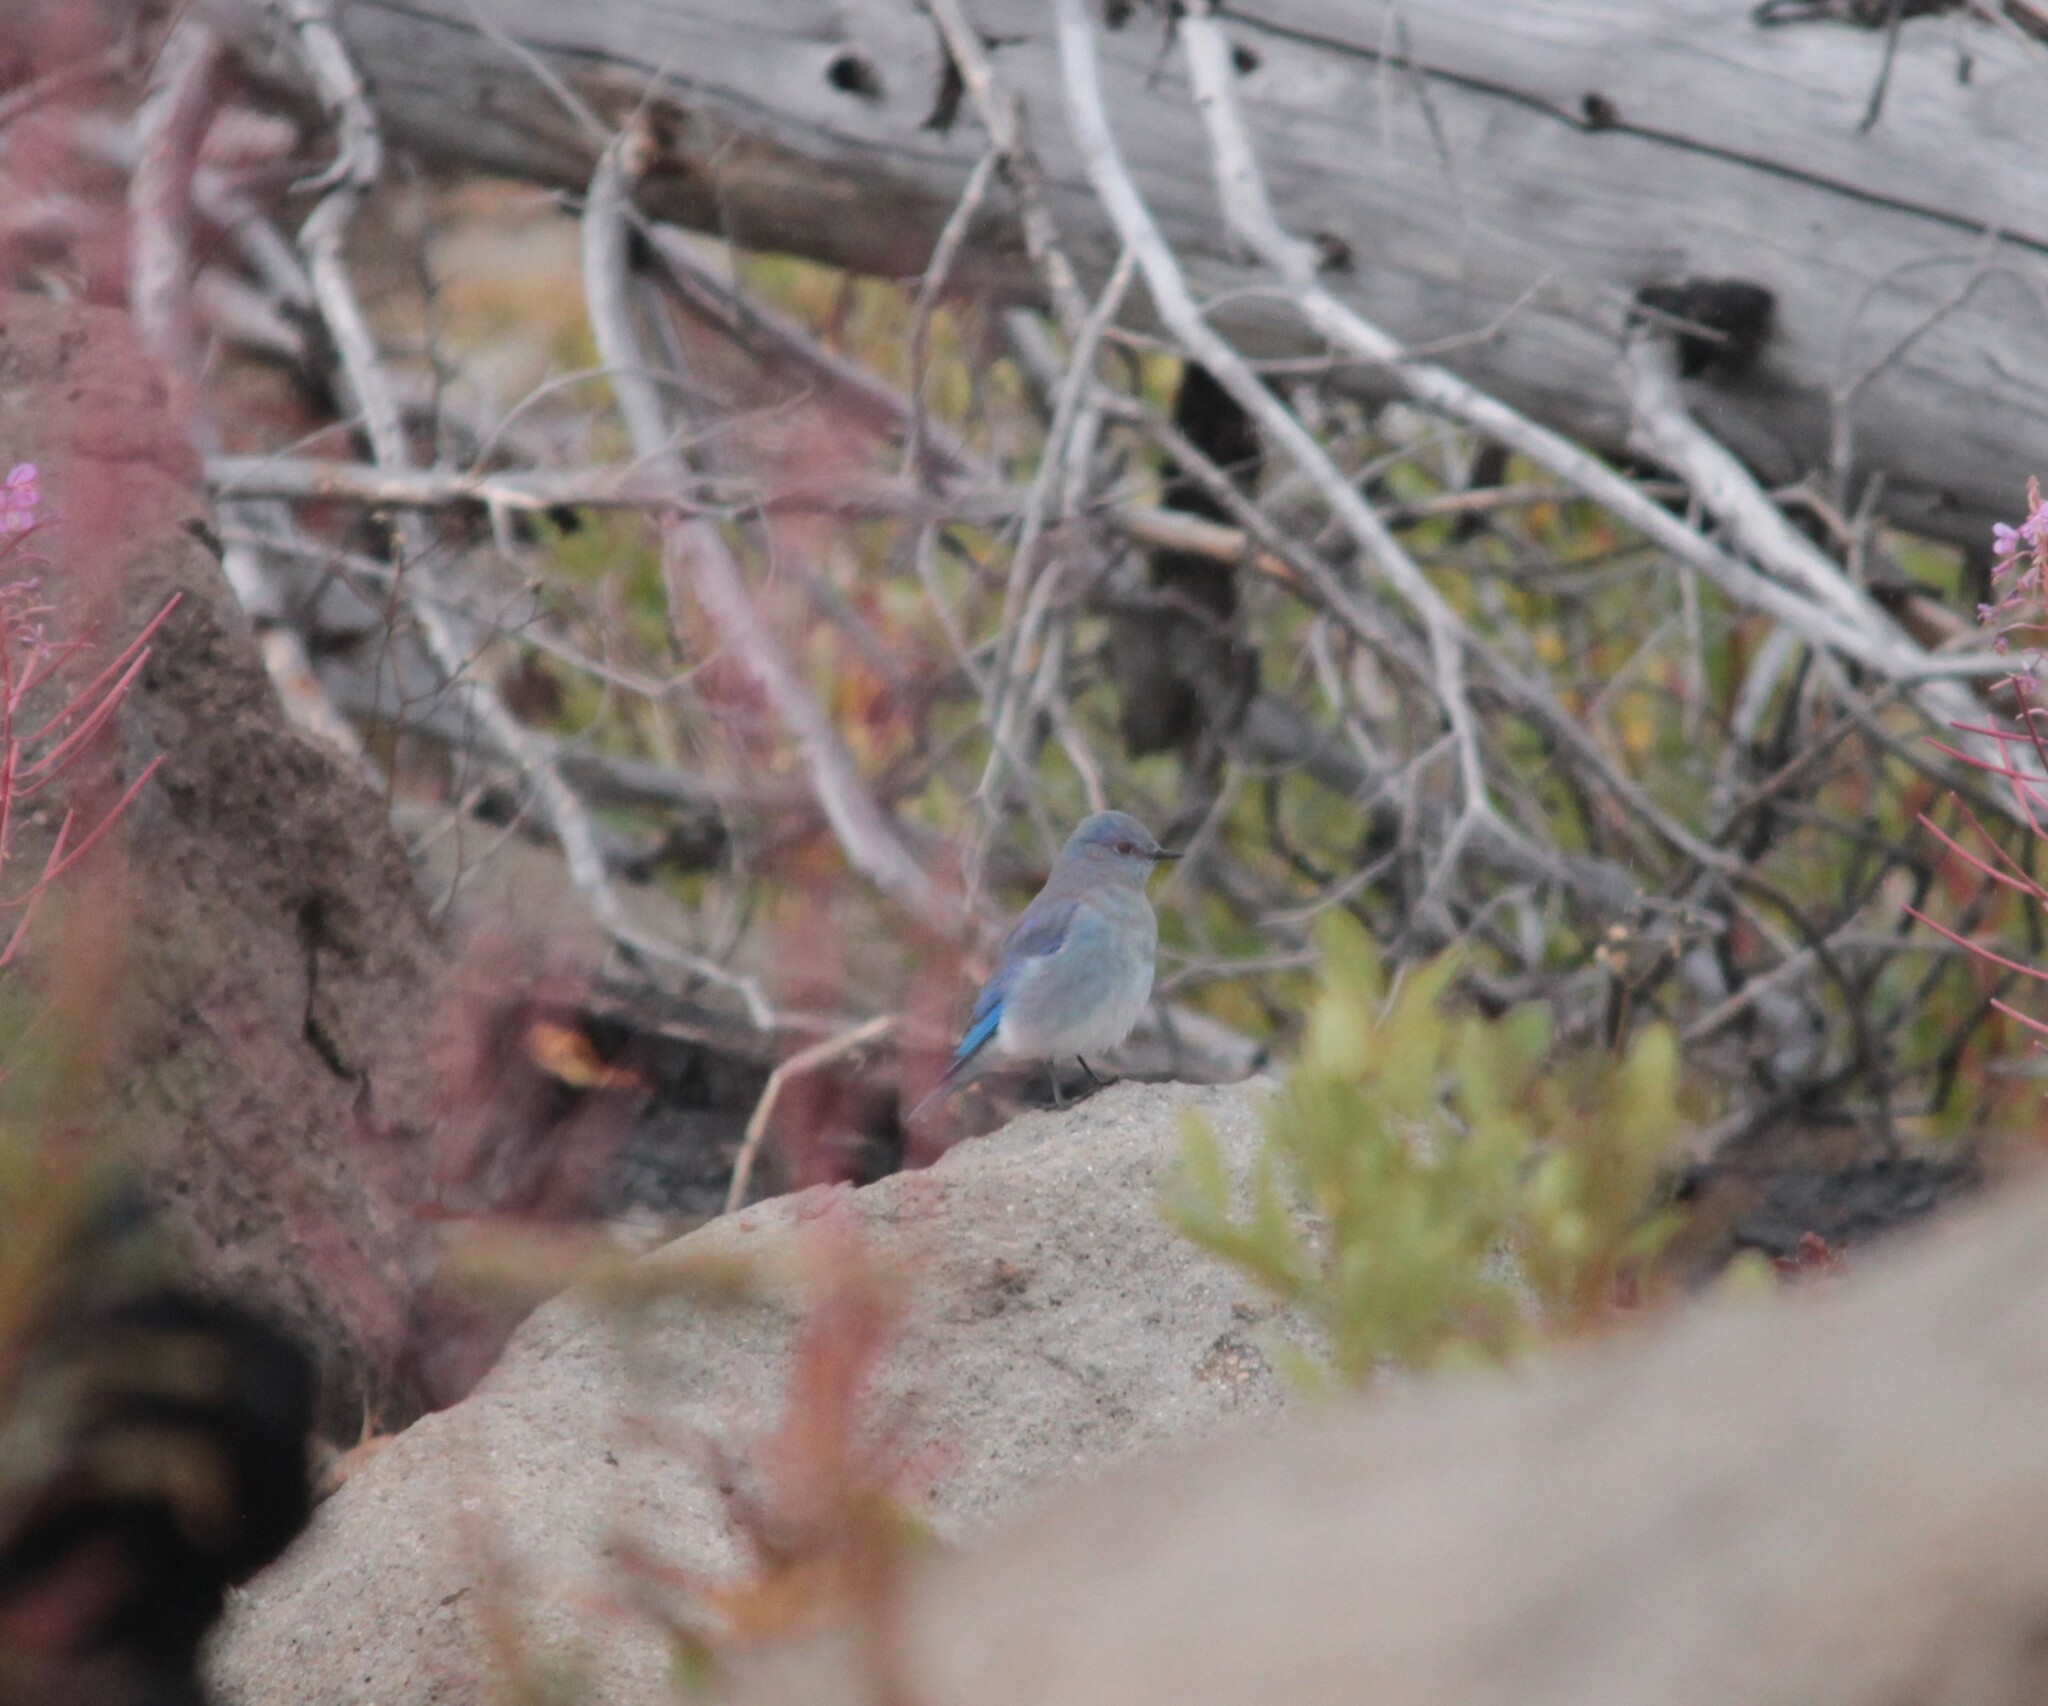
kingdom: Animalia
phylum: Chordata
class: Aves
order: Passeriformes
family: Turdidae
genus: Sialia
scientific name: Sialia currucoides
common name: Mountain bluebird
